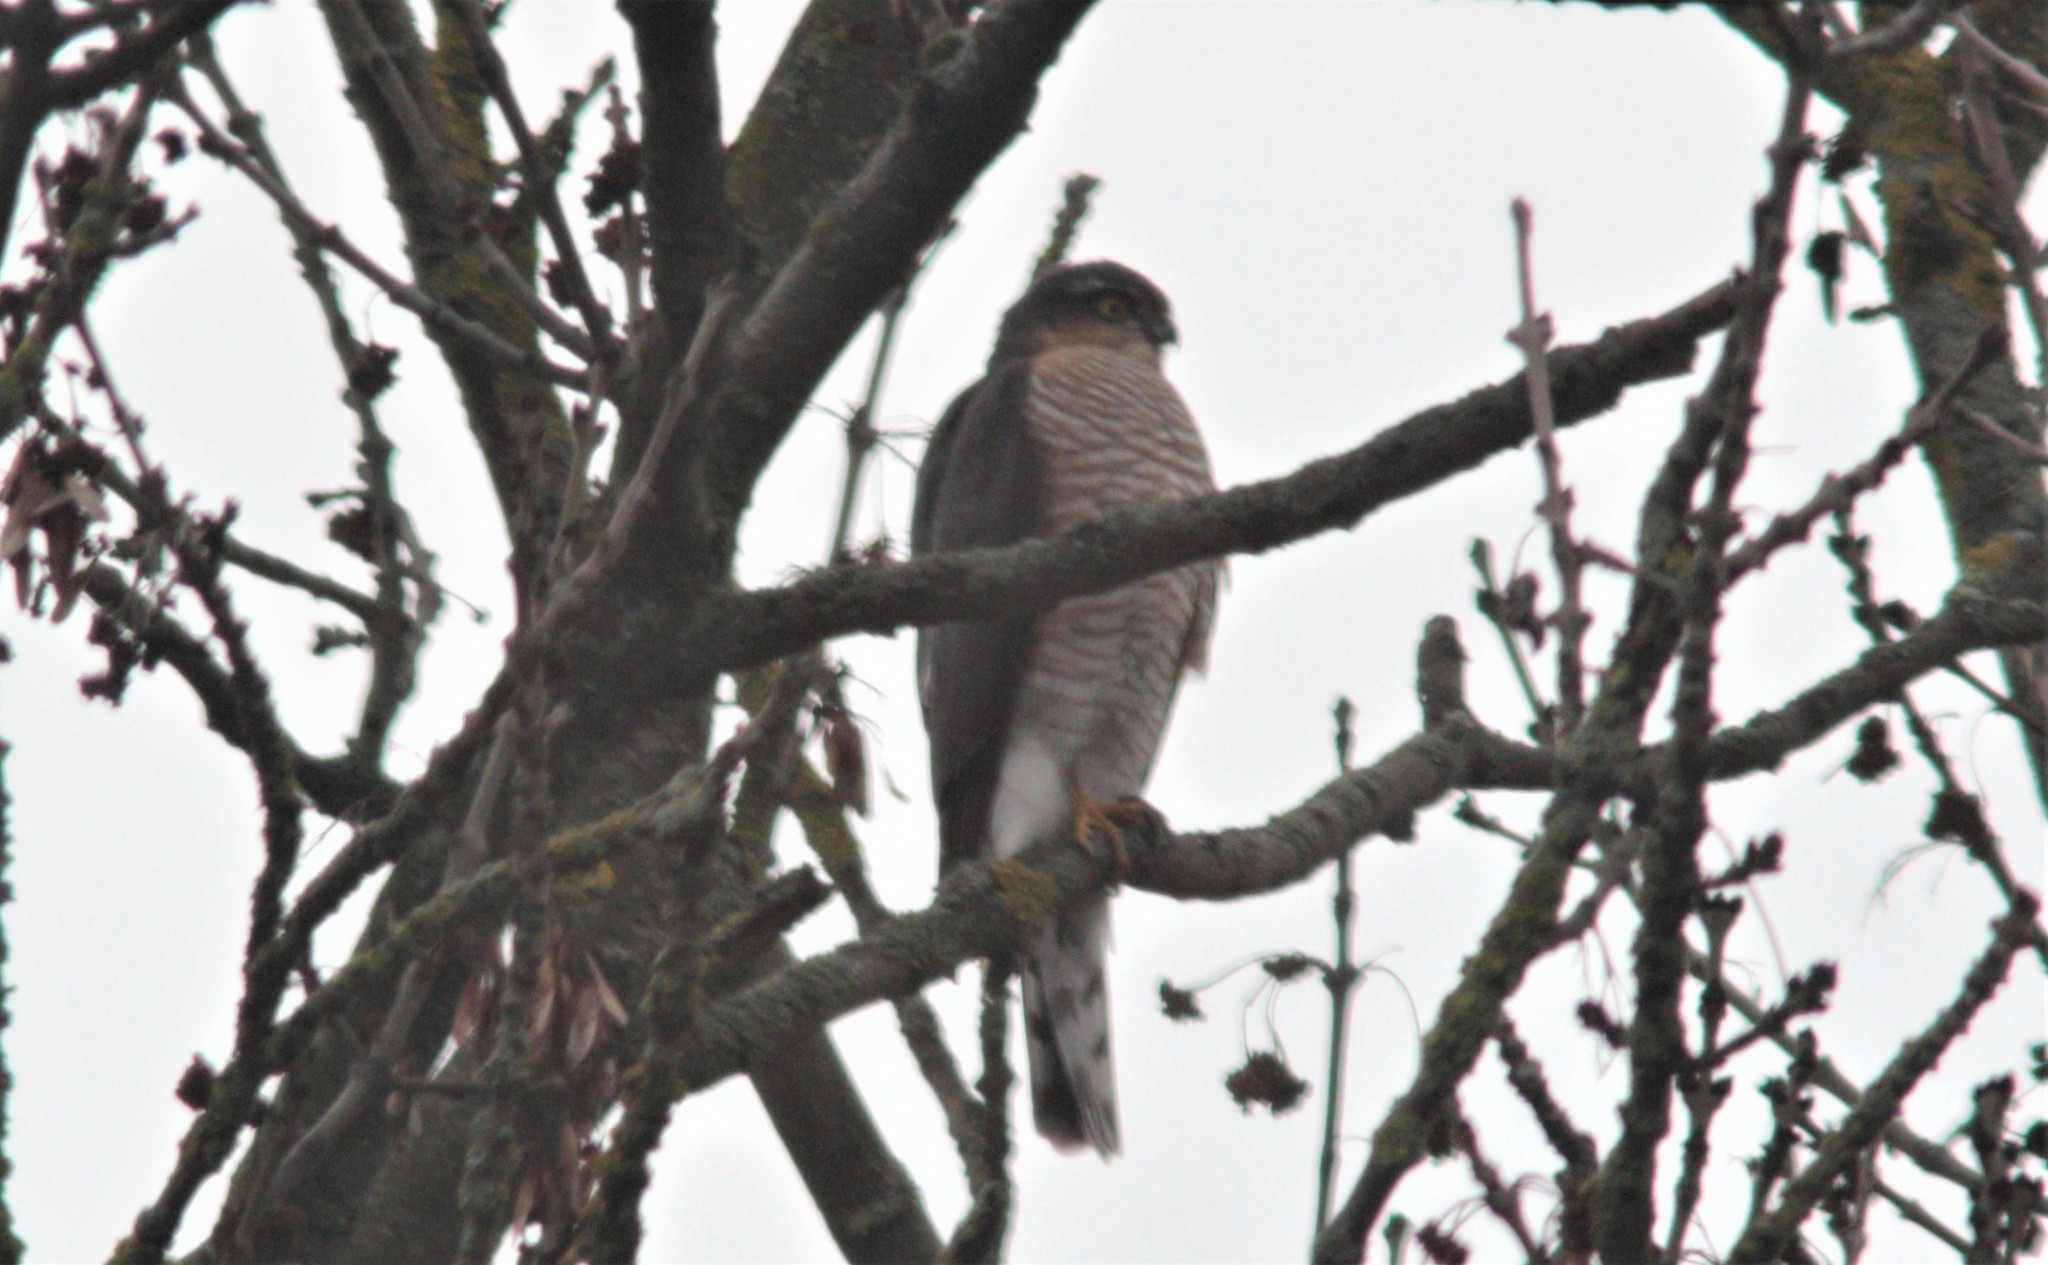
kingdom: Animalia
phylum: Chordata
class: Aves
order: Accipitriformes
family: Accipitridae
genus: Accipiter
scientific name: Accipiter nisus
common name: Eurasian sparrowhawk
